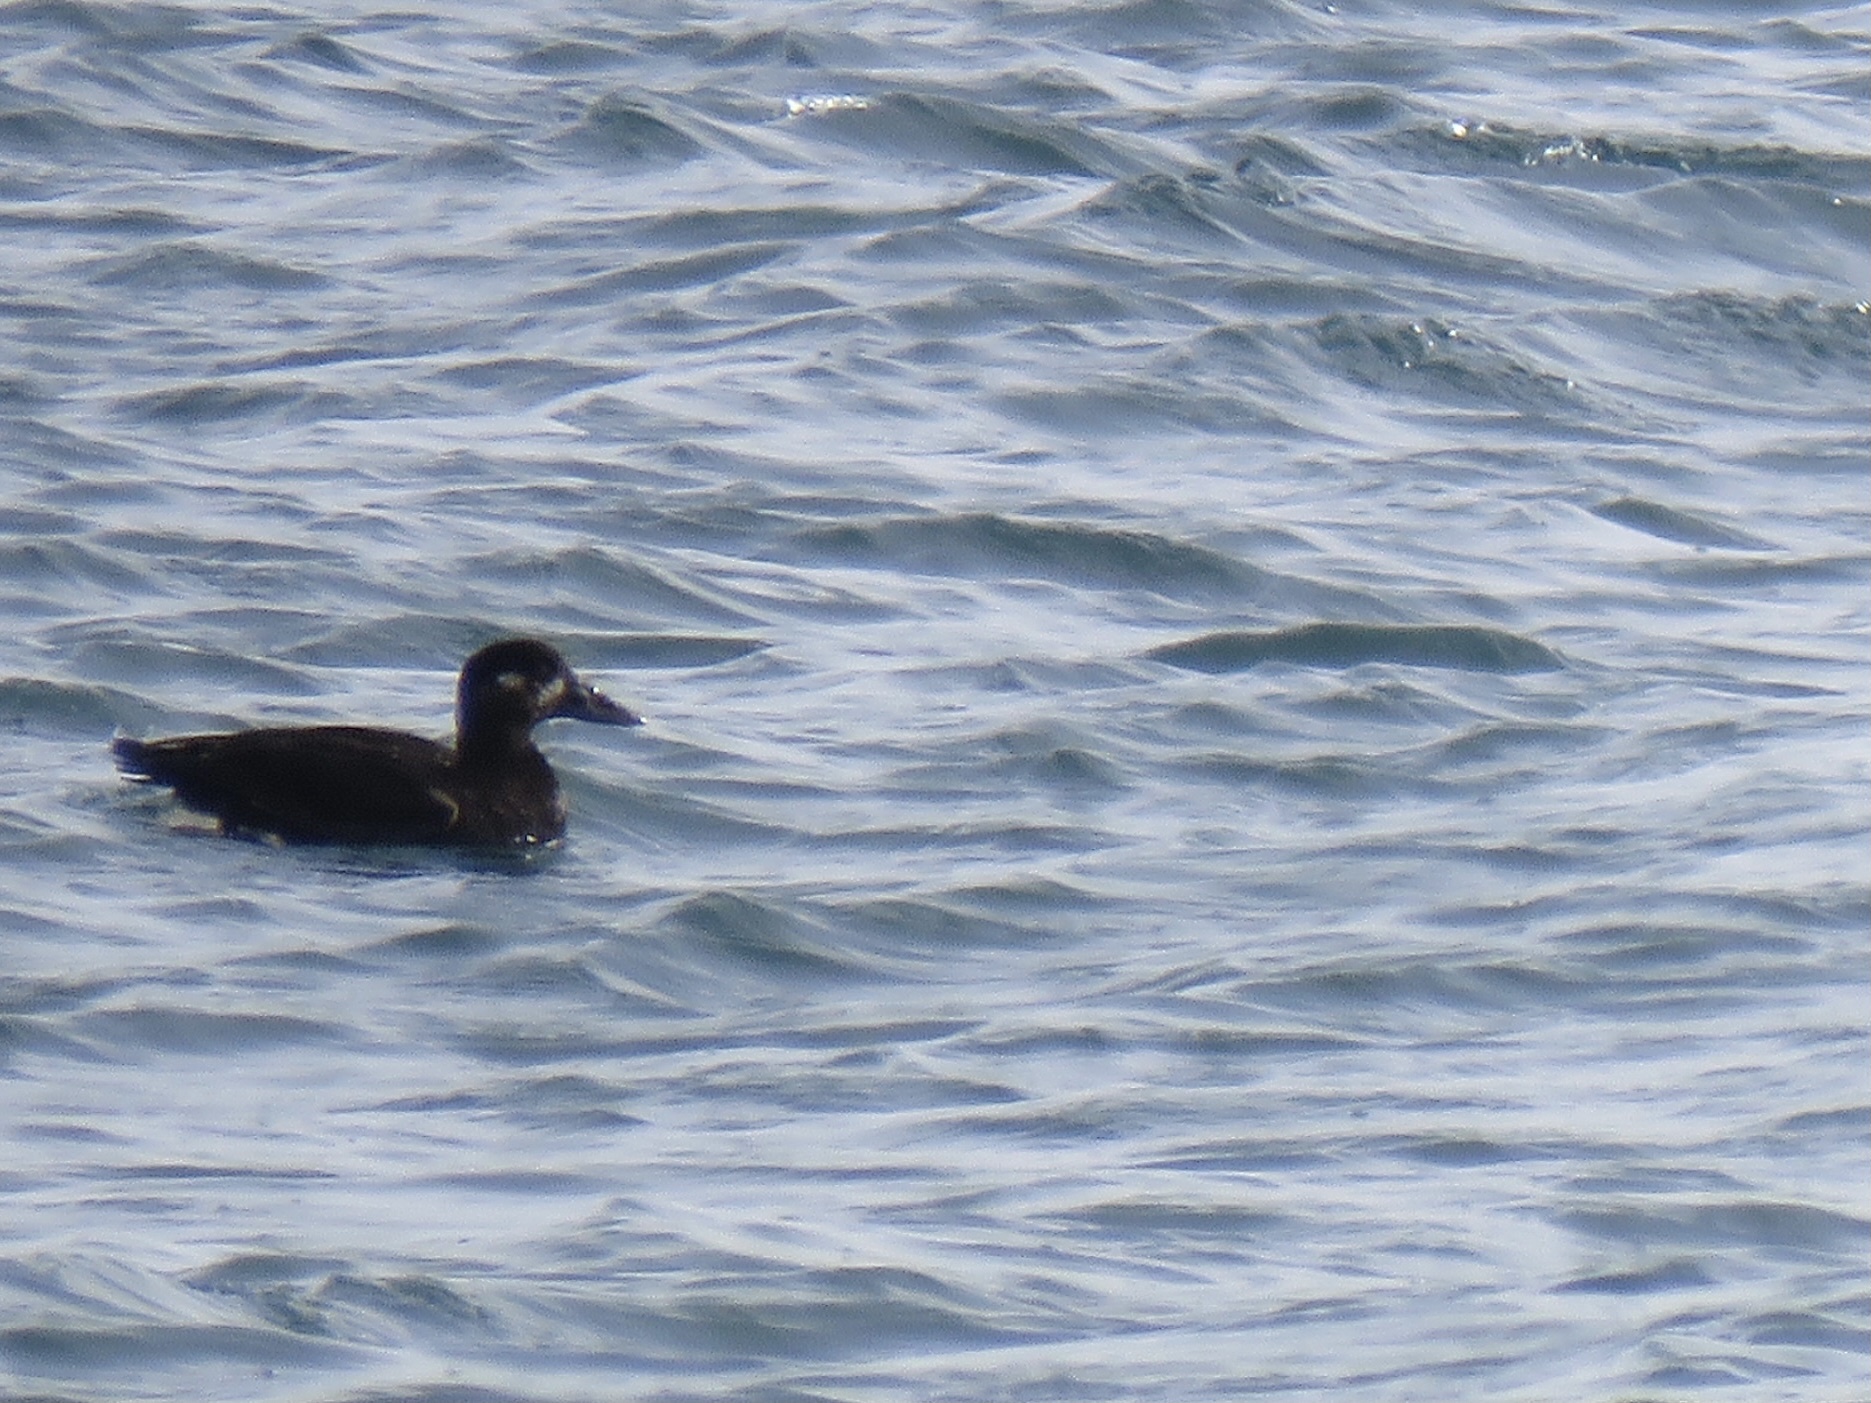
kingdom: Animalia
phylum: Chordata
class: Aves
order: Anseriformes
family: Anatidae
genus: Melanitta
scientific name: Melanitta perspicillata
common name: Surf scoter
